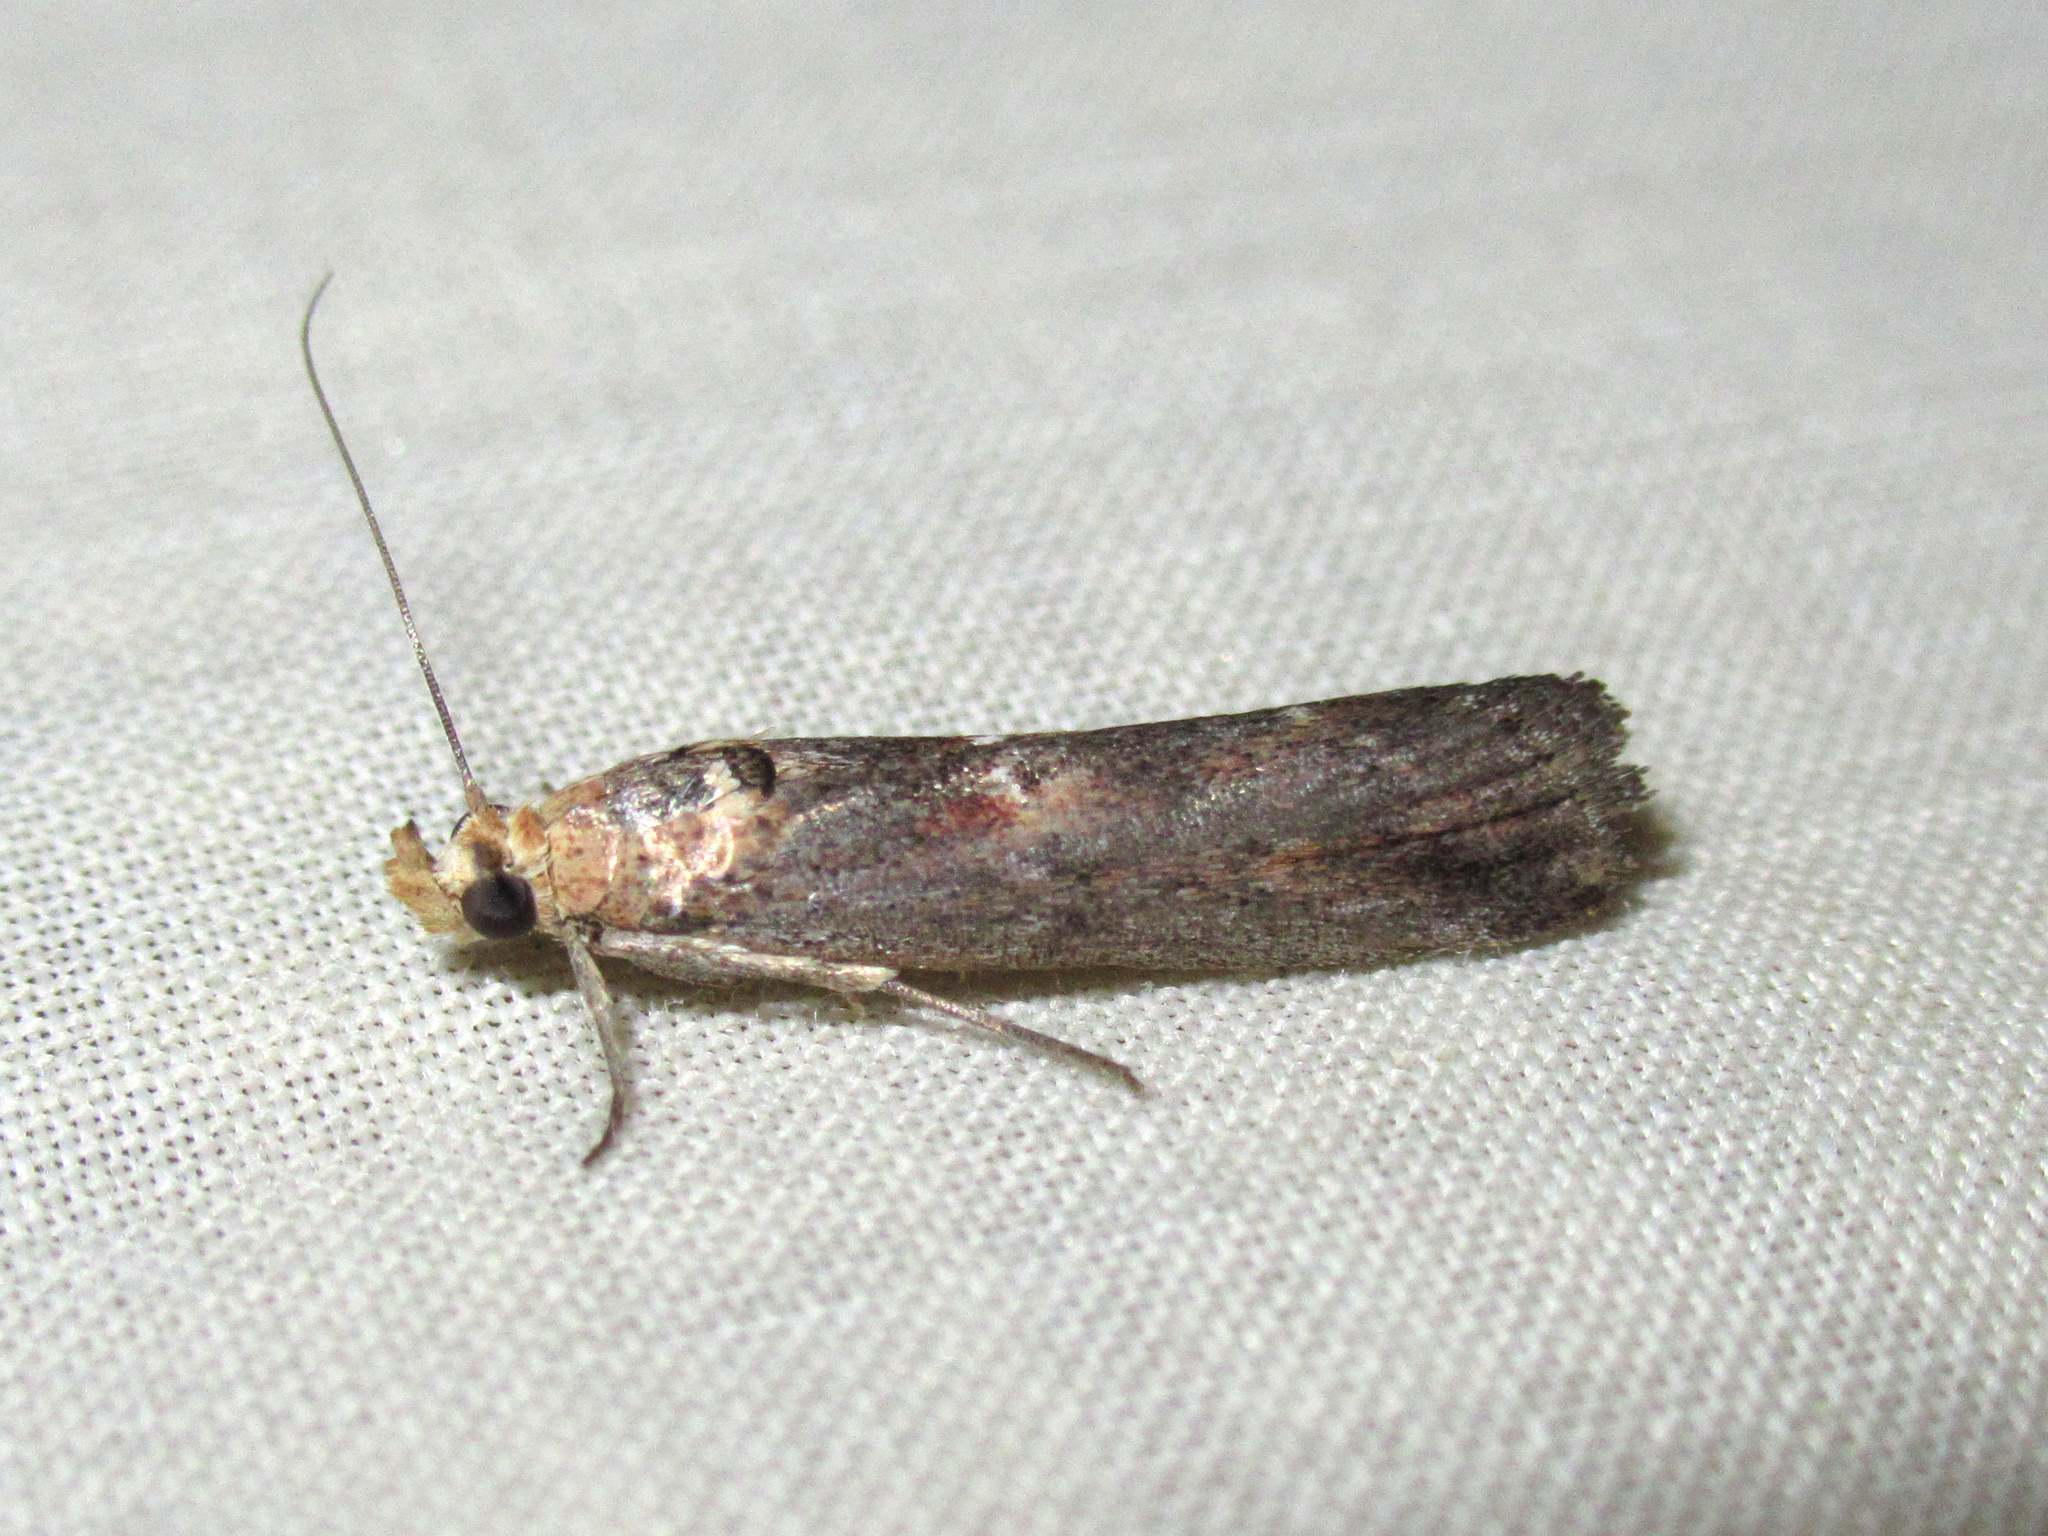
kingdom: Animalia
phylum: Arthropoda
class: Insecta
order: Lepidoptera
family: Pyralidae
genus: Morosaphycita
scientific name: Morosaphycita oculiferella
